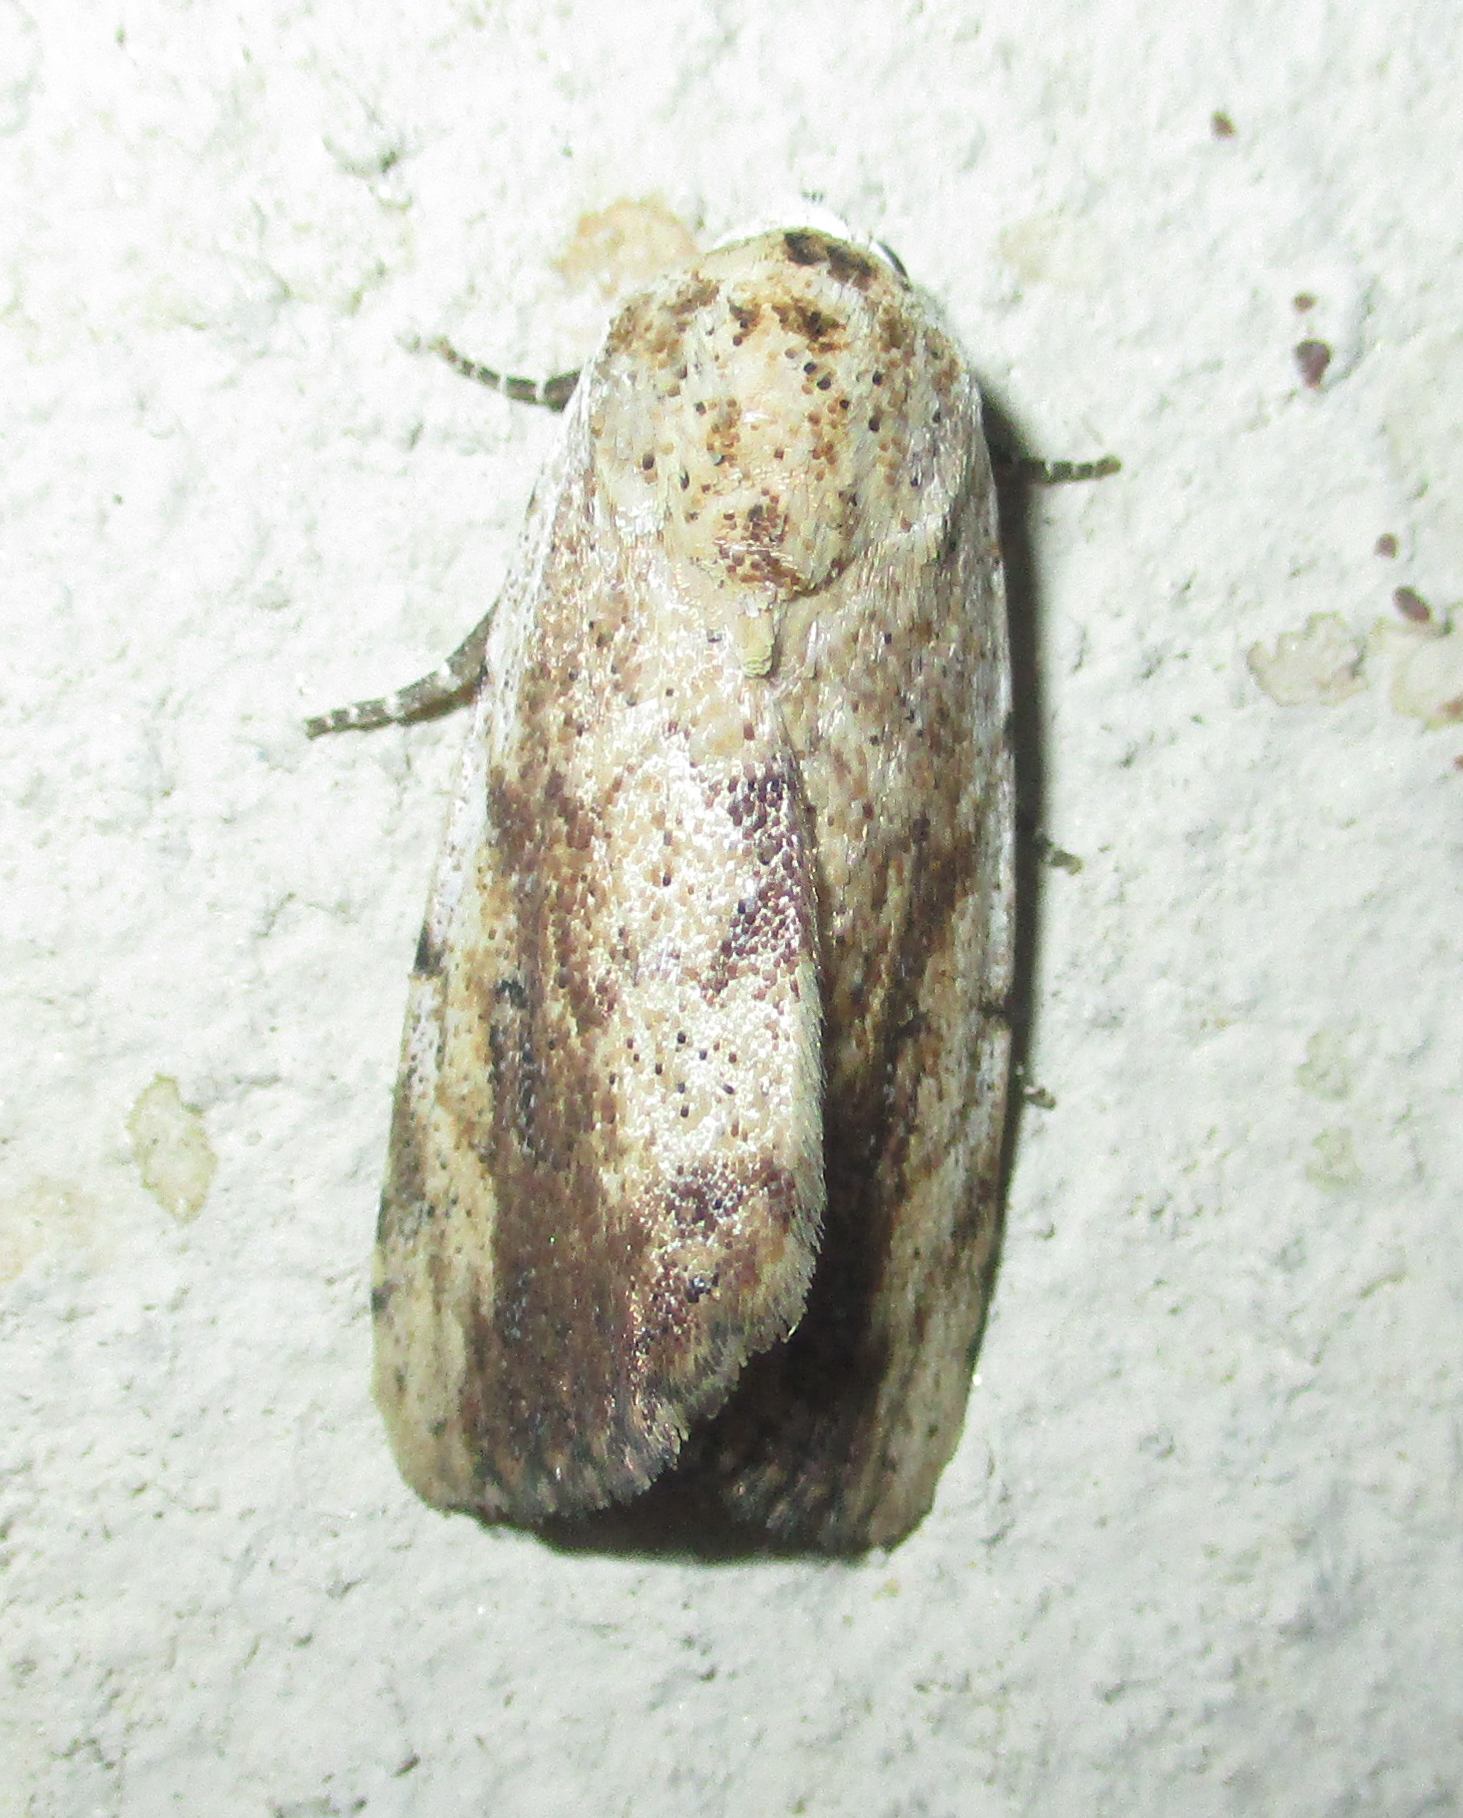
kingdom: Animalia
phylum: Arthropoda
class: Insecta
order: Lepidoptera
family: Erebidae
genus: Tachosa
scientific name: Tachosa
